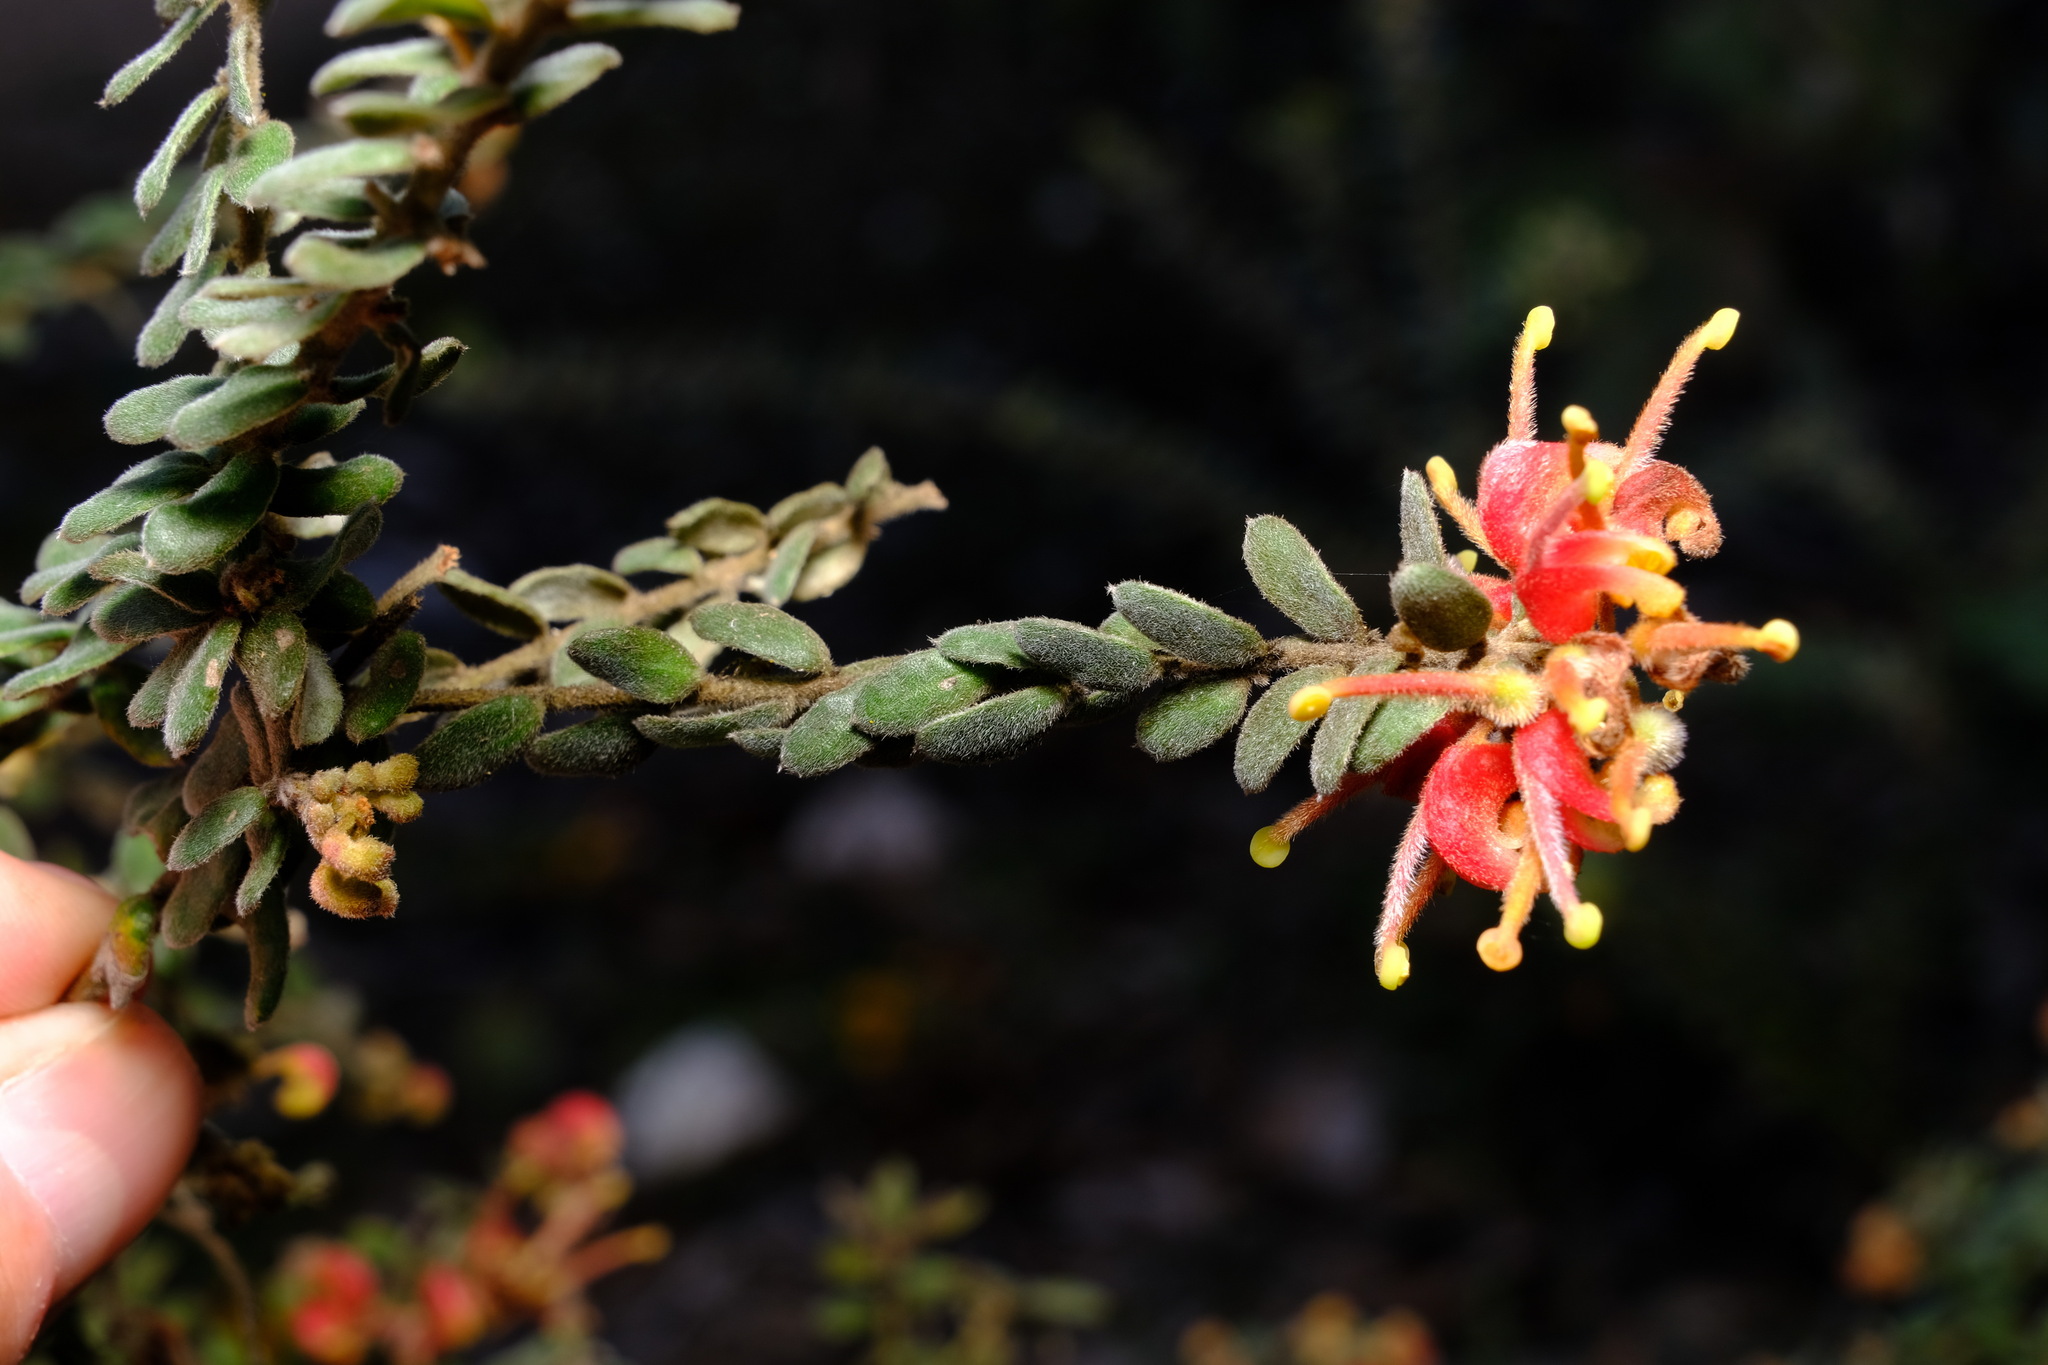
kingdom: Plantae
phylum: Tracheophyta
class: Magnoliopsida
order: Proteales
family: Proteaceae
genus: Grevillea
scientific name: Grevillea alpina
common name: Catclaws grevillea
